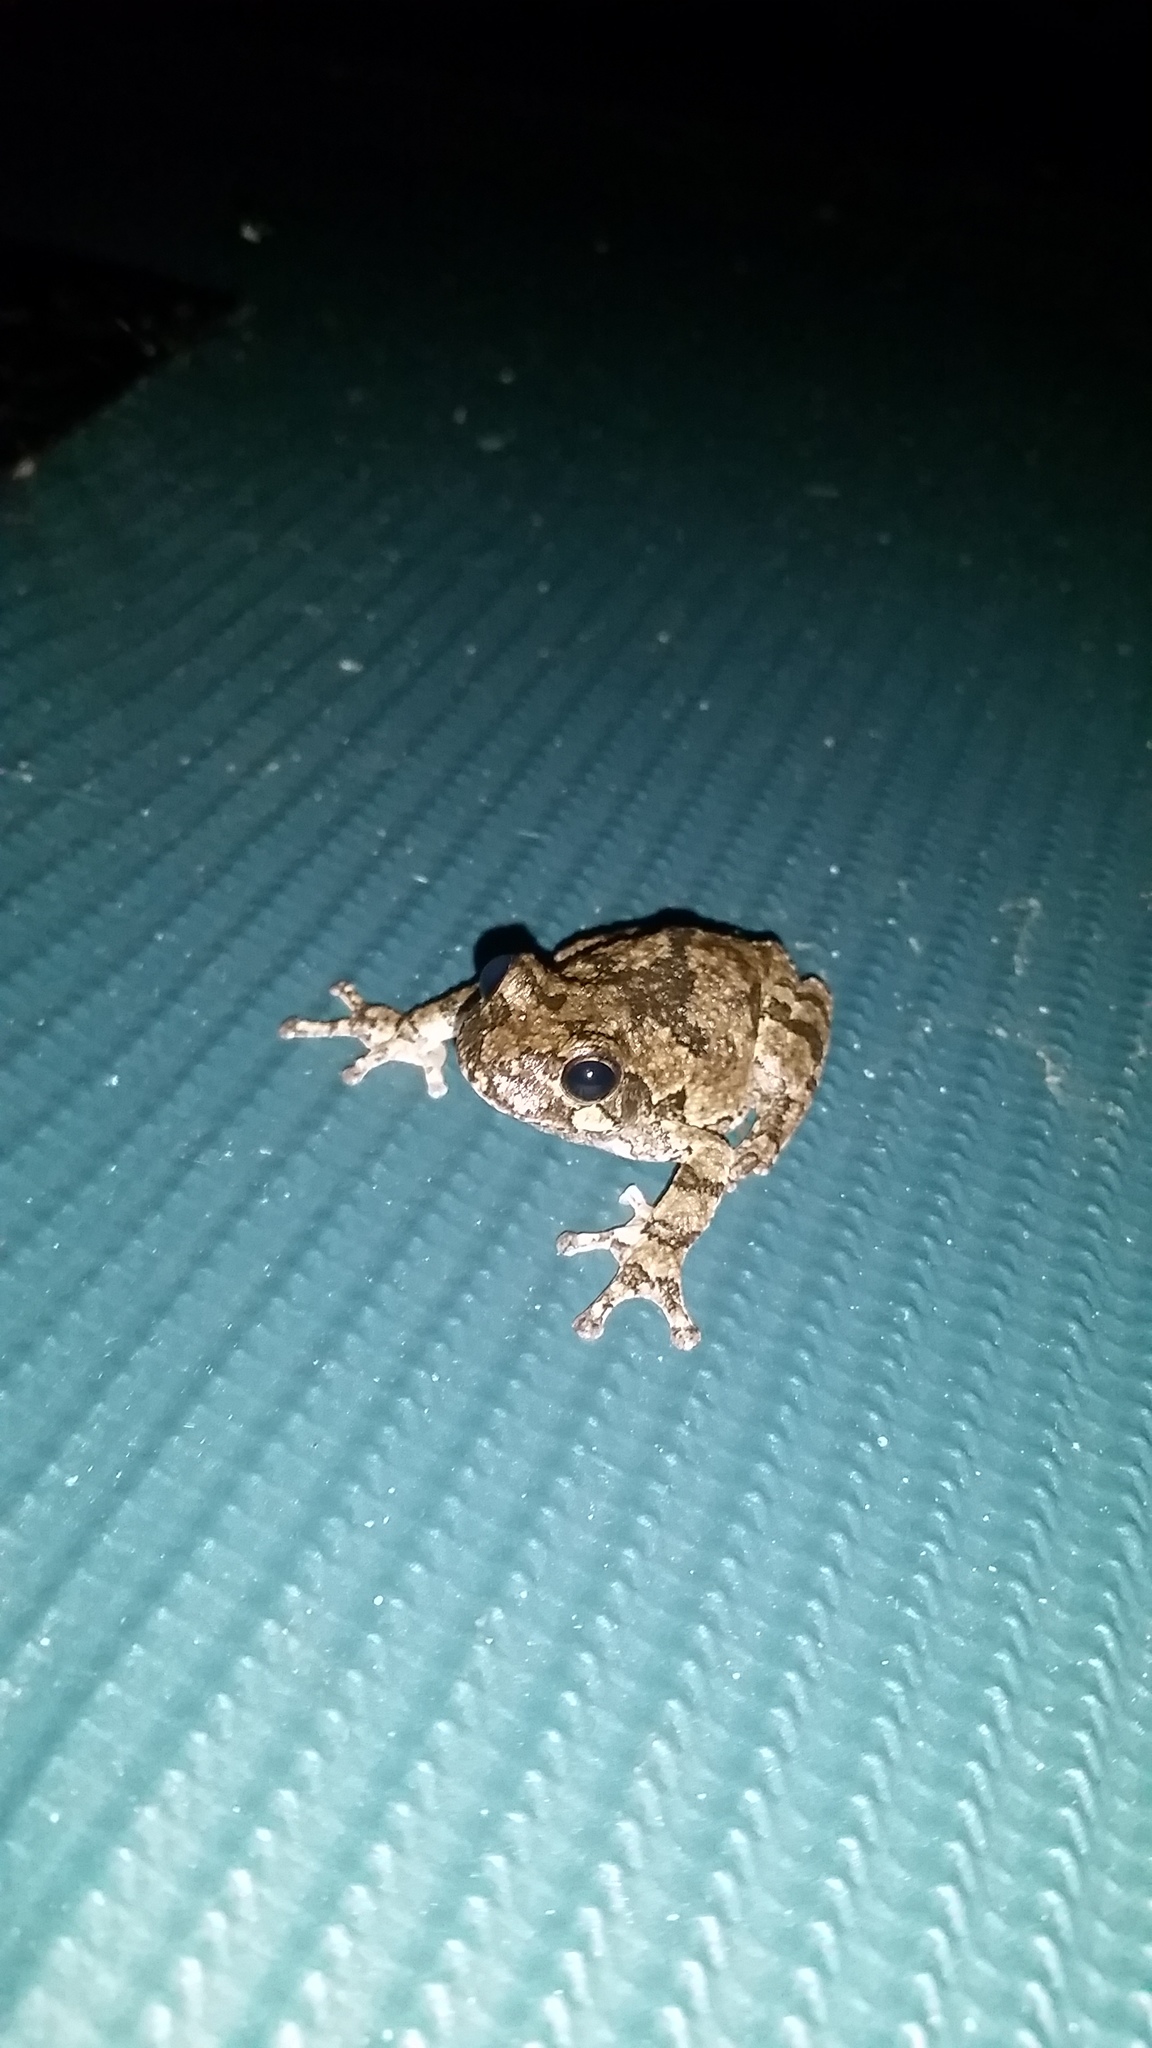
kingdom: Animalia
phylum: Chordata
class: Amphibia
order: Anura
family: Hylidae
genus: Dryophytes
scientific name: Dryophytes chrysoscelis
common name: Cope's gray treefrog
